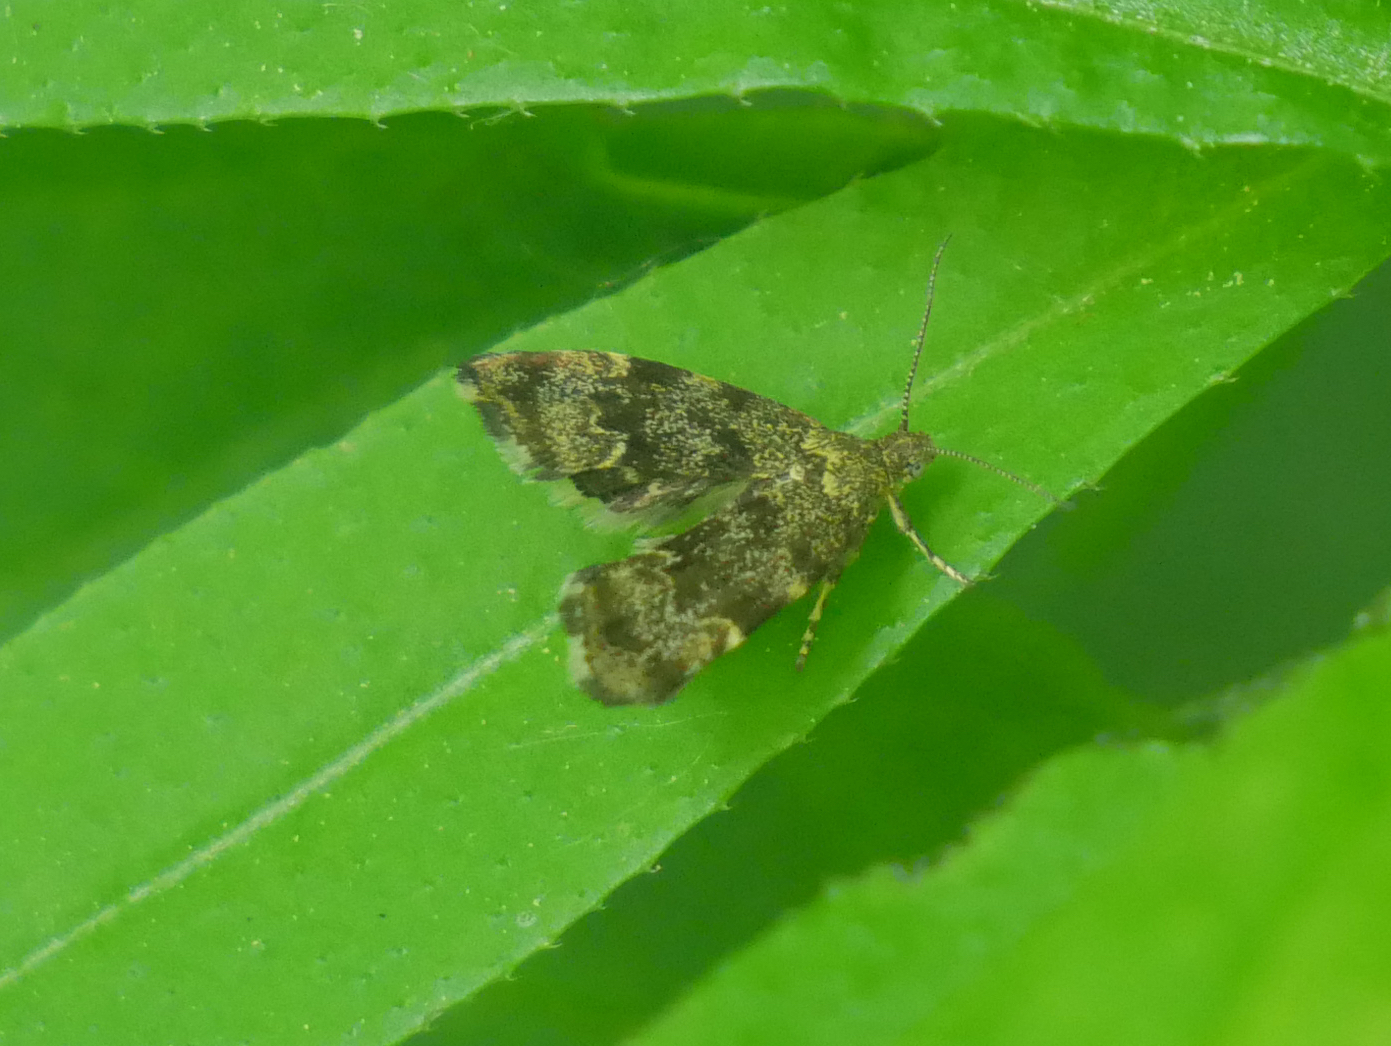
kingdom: Animalia
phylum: Arthropoda
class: Insecta
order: Lepidoptera
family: Choreutidae
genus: Anthophila
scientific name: Anthophila fabriciana
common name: Nettle-tap
